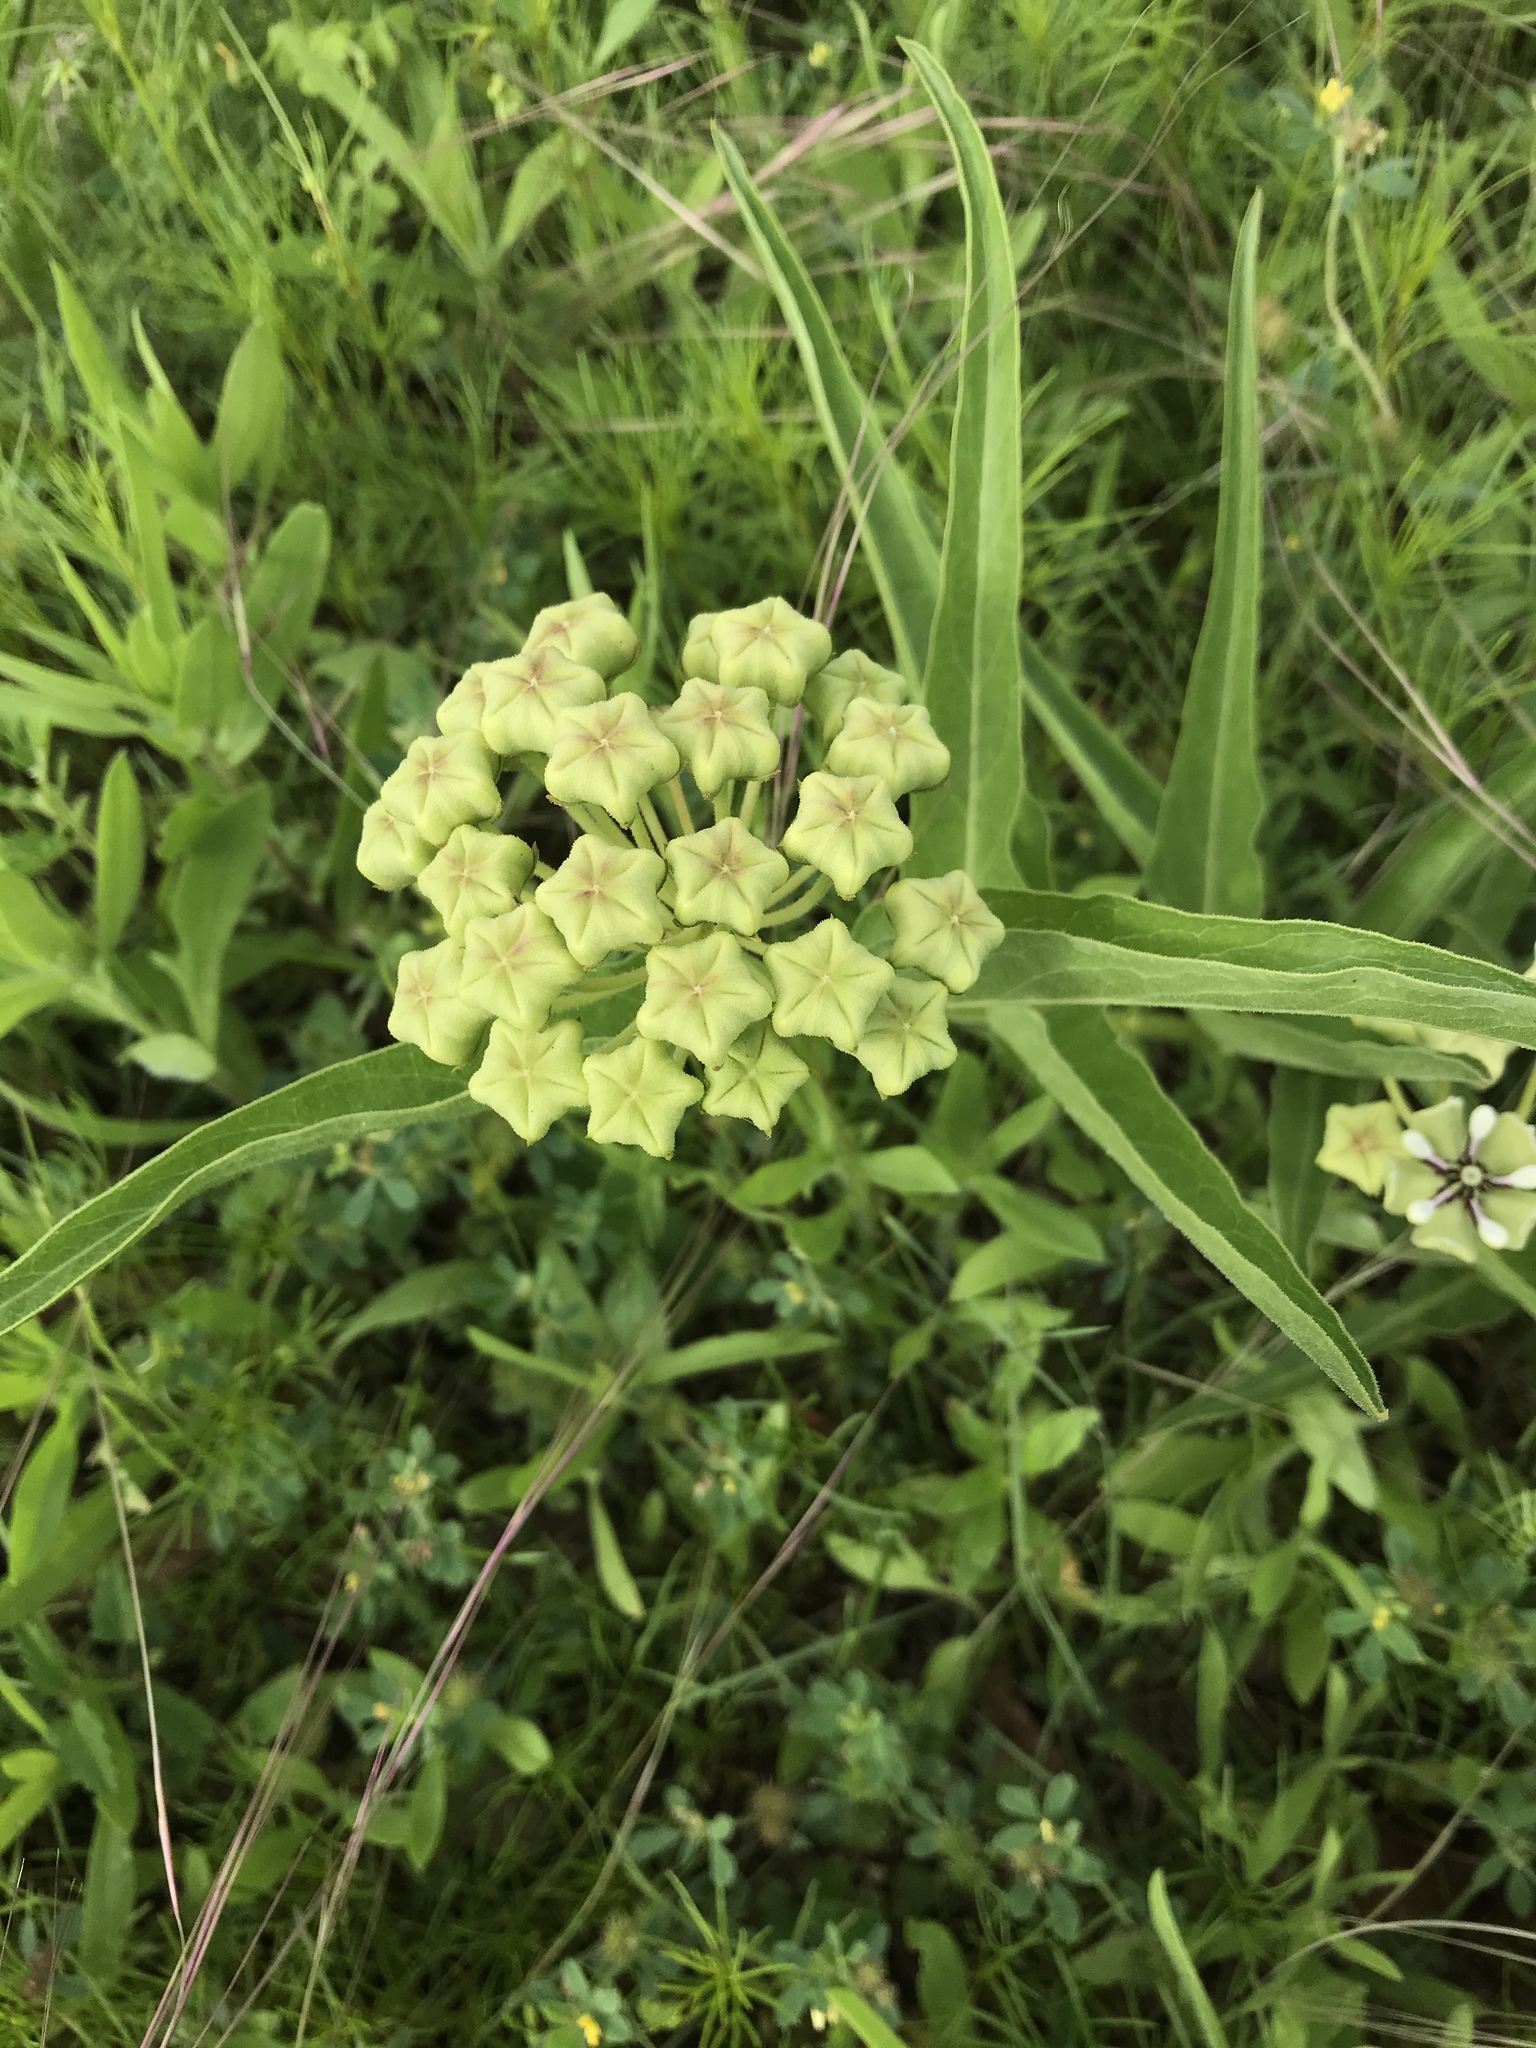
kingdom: Plantae
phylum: Tracheophyta
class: Magnoliopsida
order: Gentianales
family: Apocynaceae
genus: Asclepias
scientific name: Asclepias asperula
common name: Antelope horns
